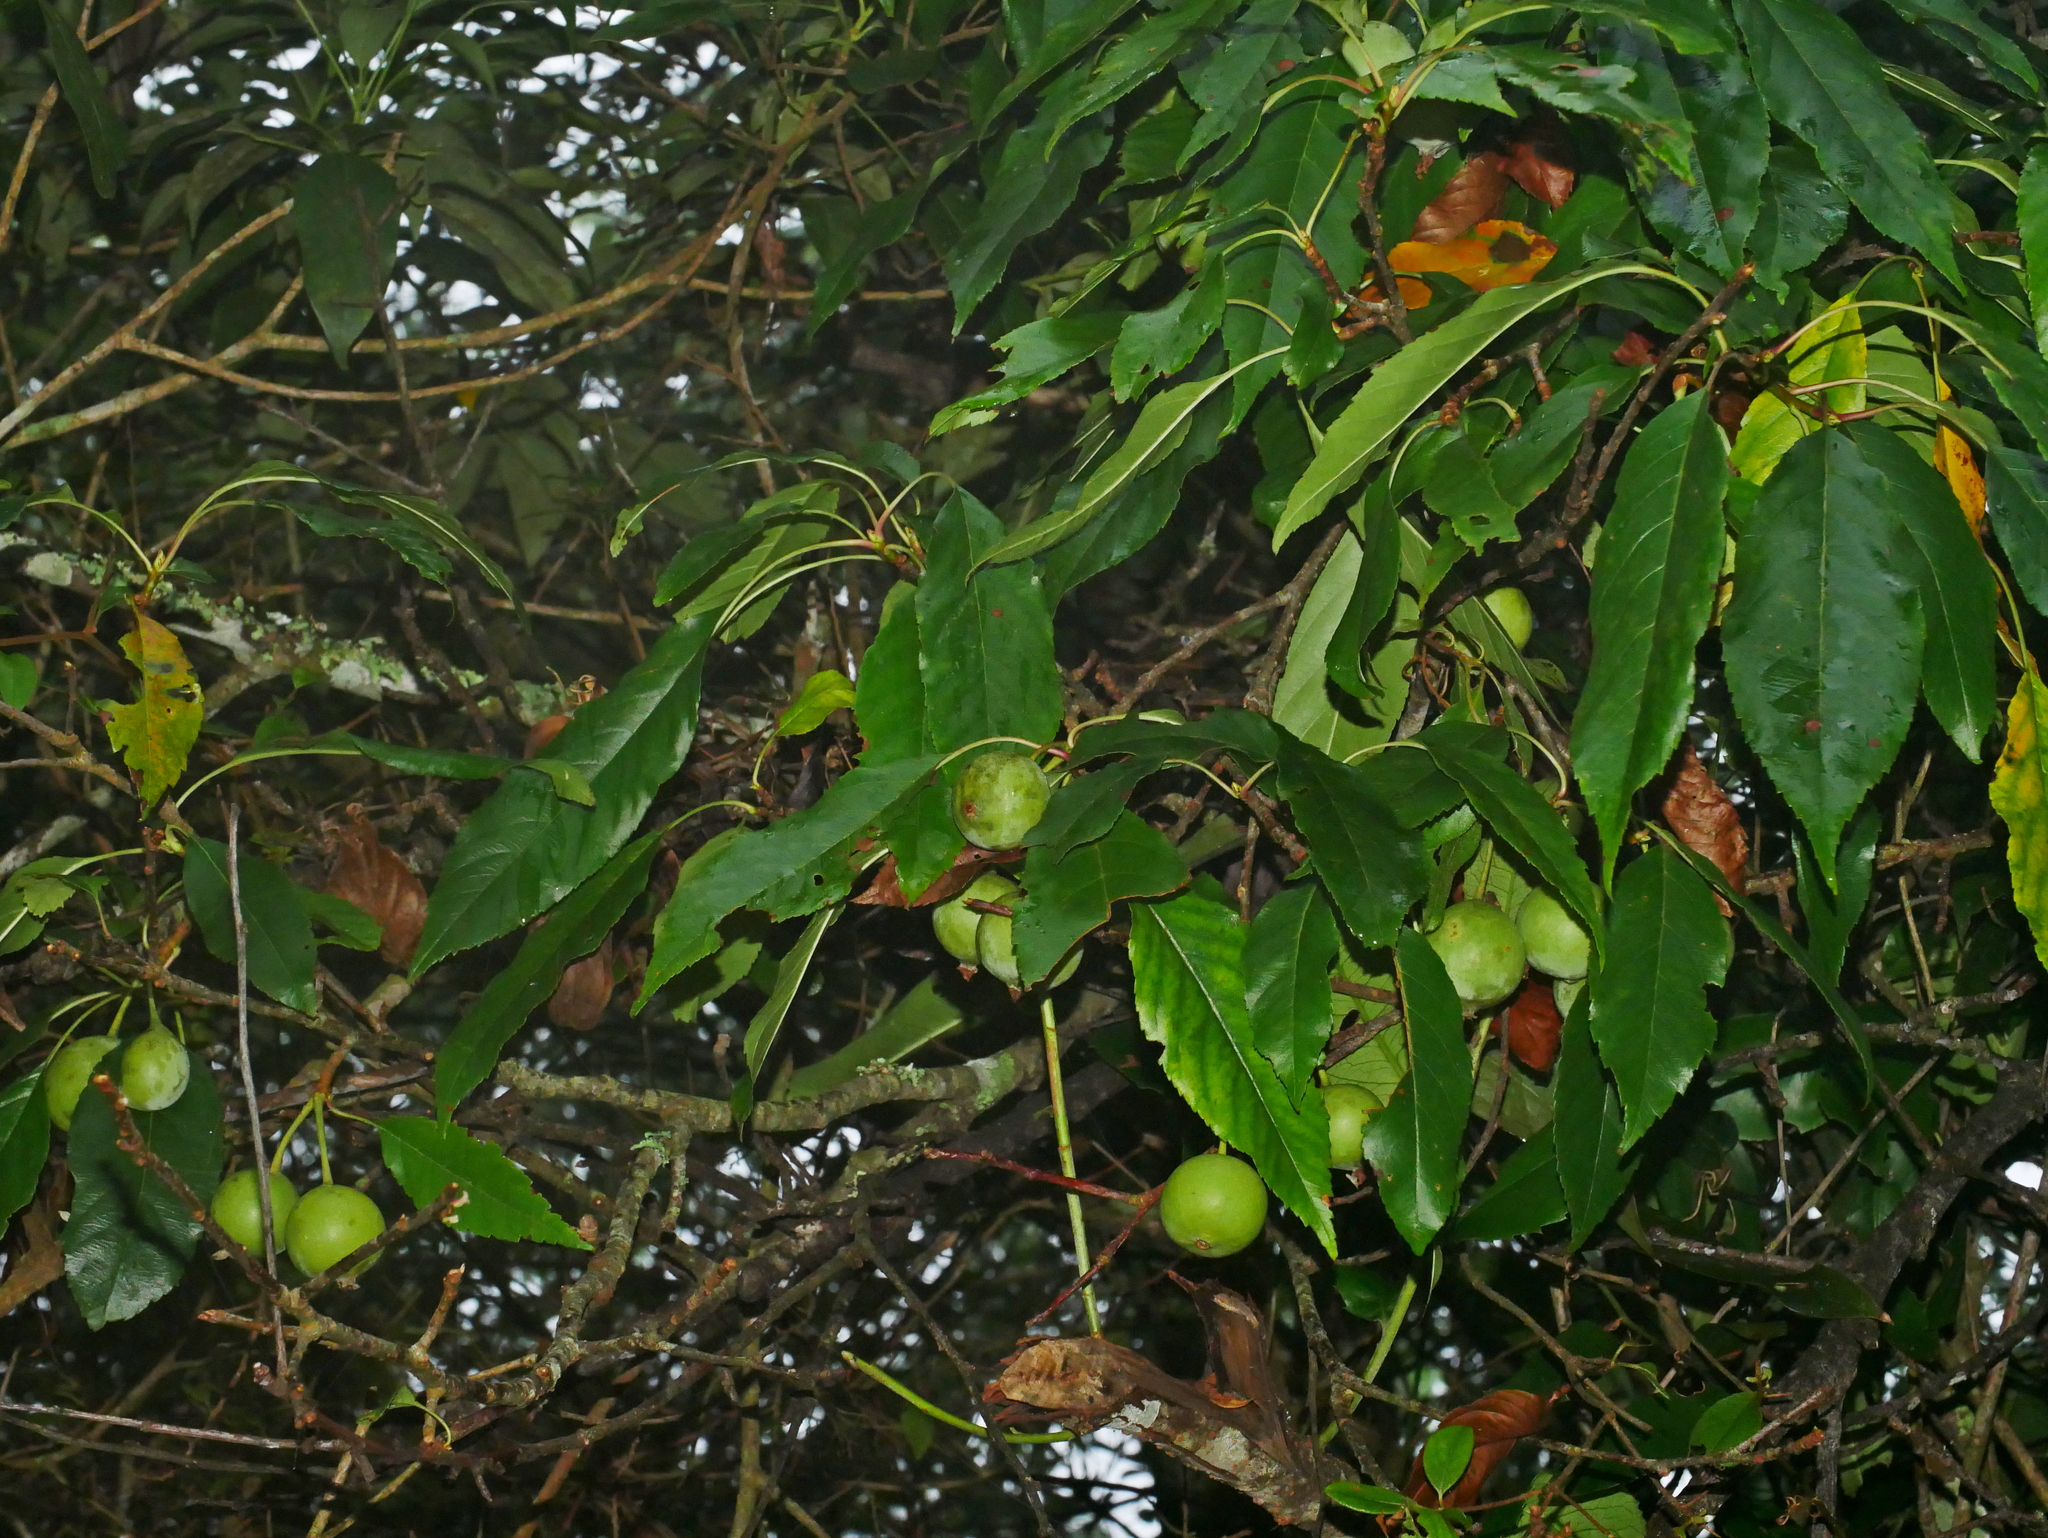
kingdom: Plantae
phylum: Tracheophyta
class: Magnoliopsida
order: Rosales
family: Rosaceae
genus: Malus
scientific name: Malus doumeri
